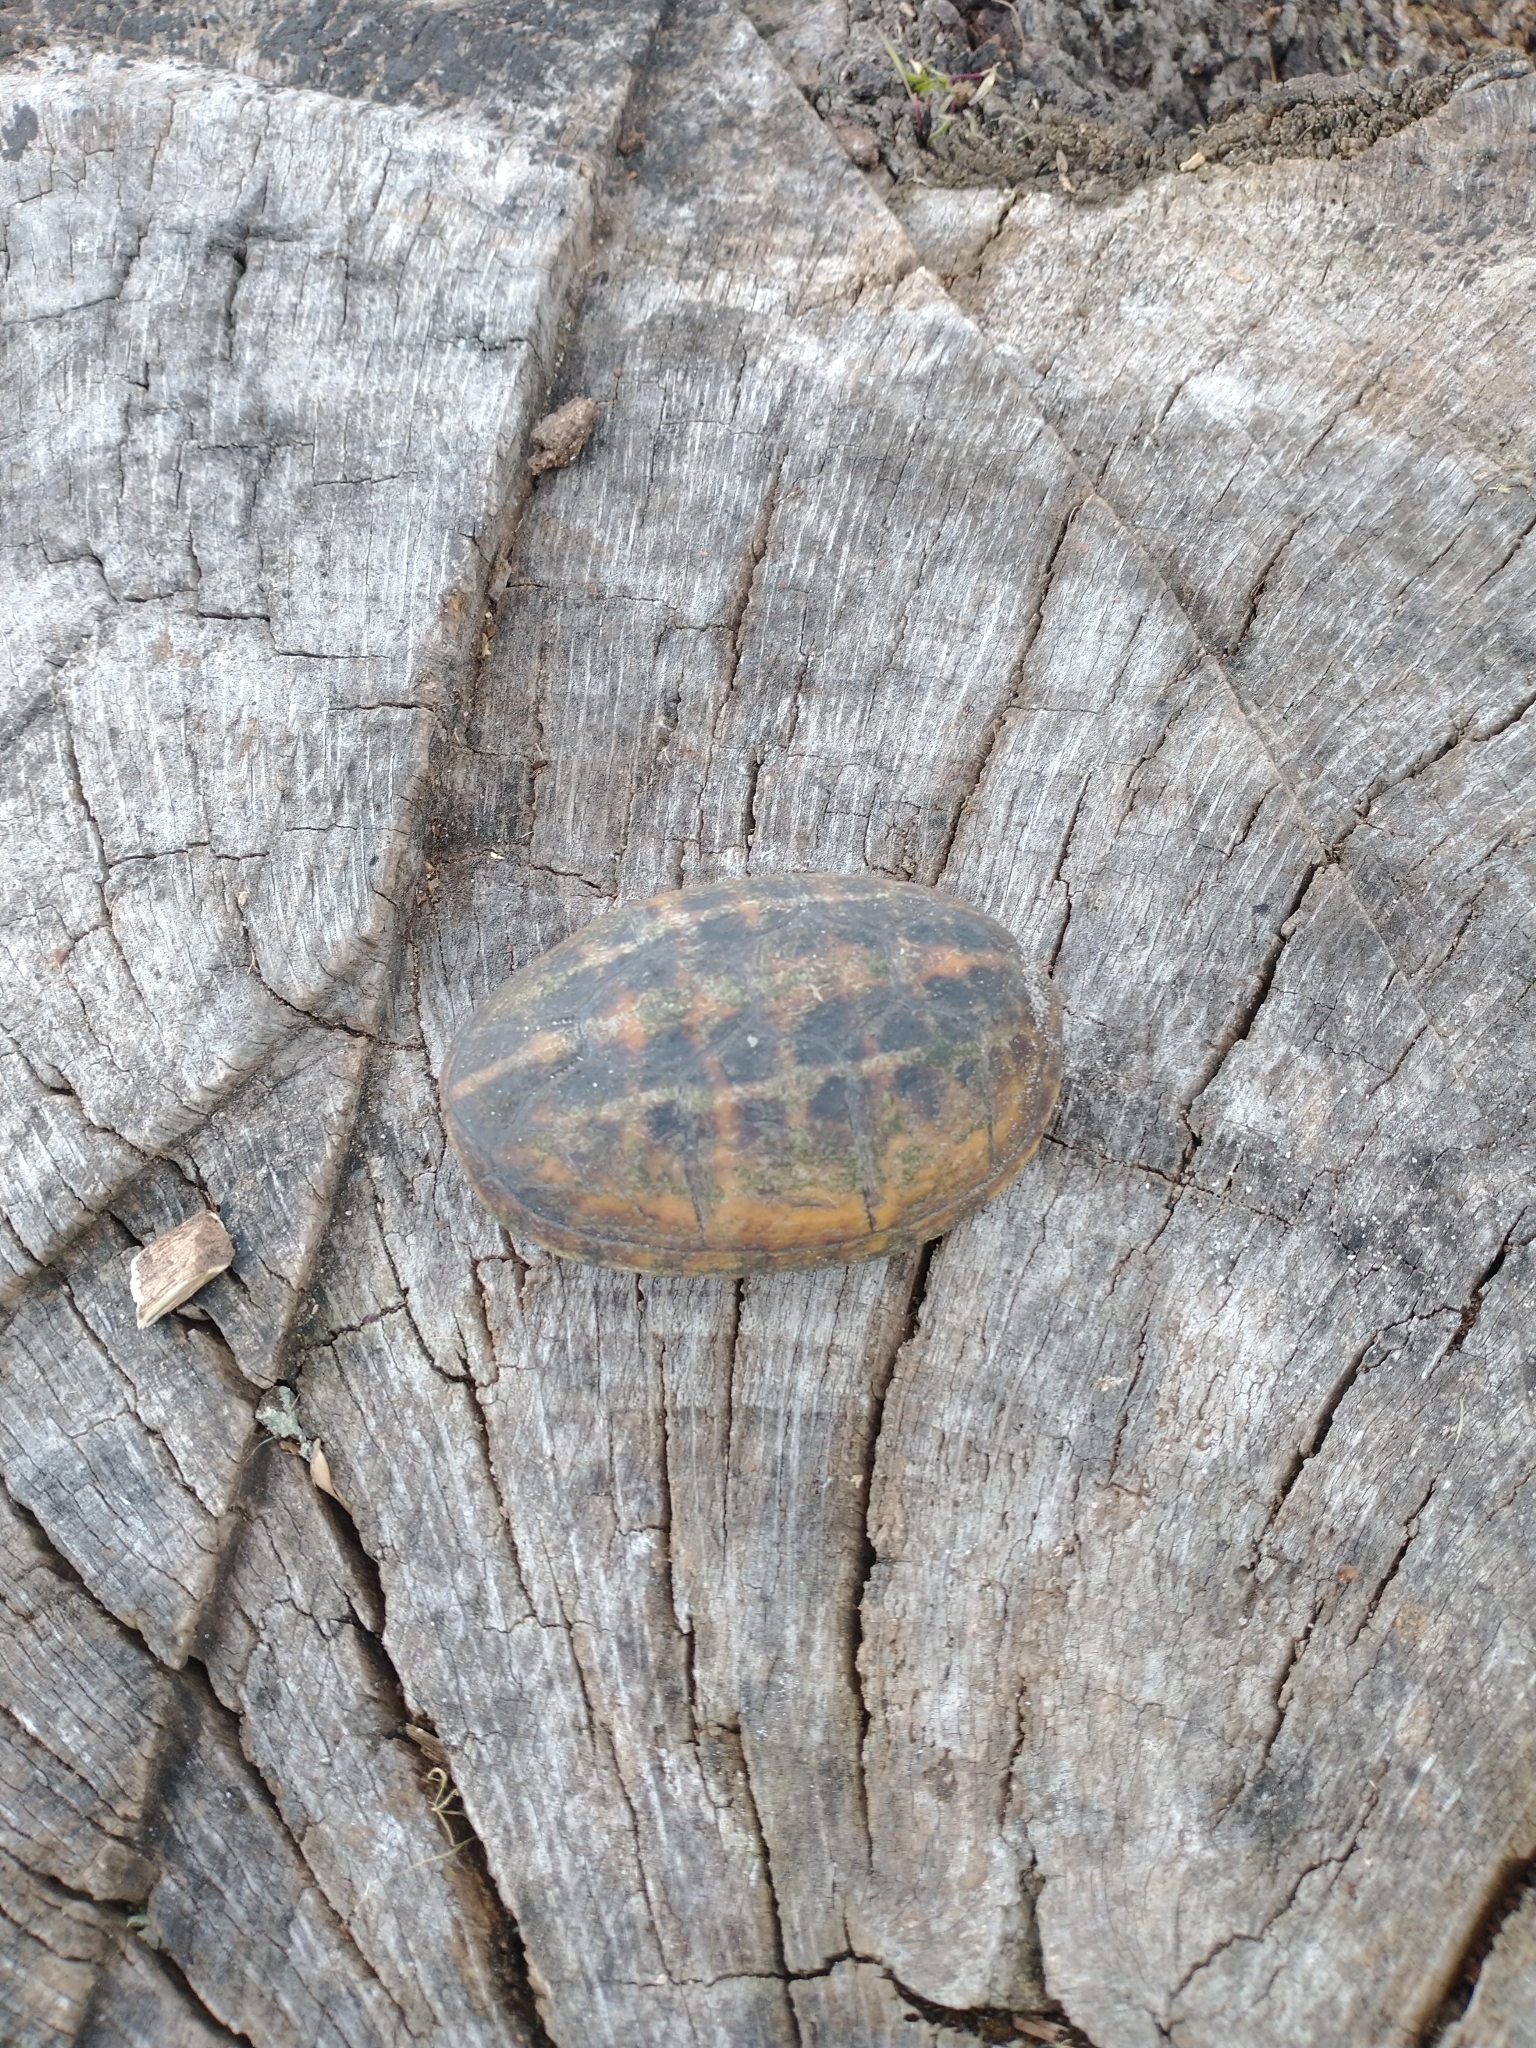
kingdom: Animalia
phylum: Chordata
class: Testudines
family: Kinosternidae
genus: Kinosternon
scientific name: Kinosternon baurii
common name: Striped mud turtle
